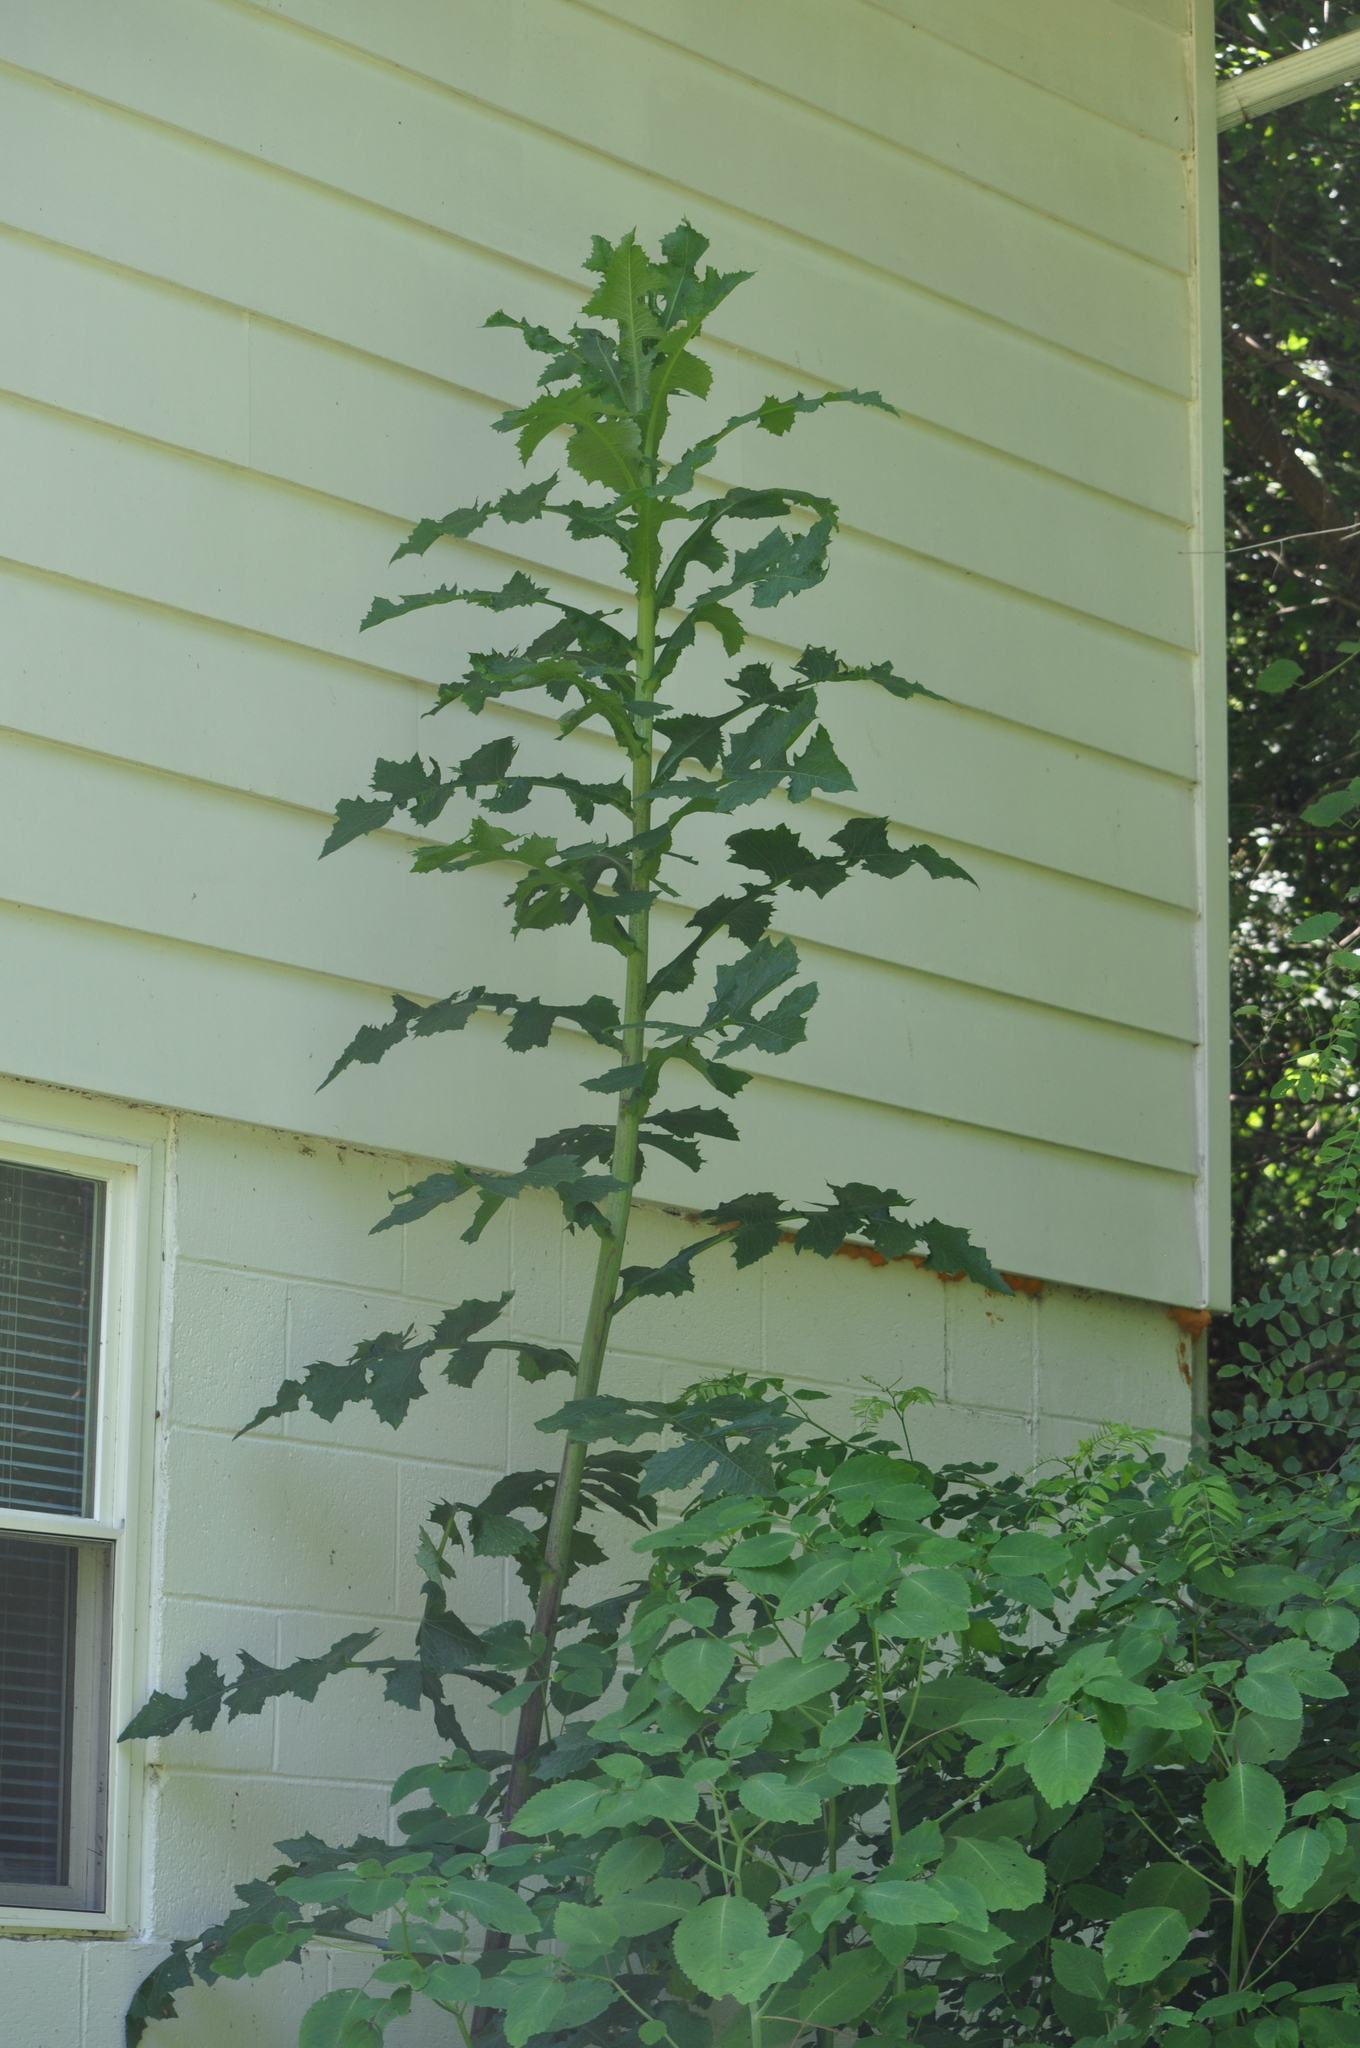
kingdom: Plantae
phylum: Tracheophyta
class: Magnoliopsida
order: Asterales
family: Asteraceae
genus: Lactuca
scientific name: Lactuca biennis
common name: Blue wood lettuce
